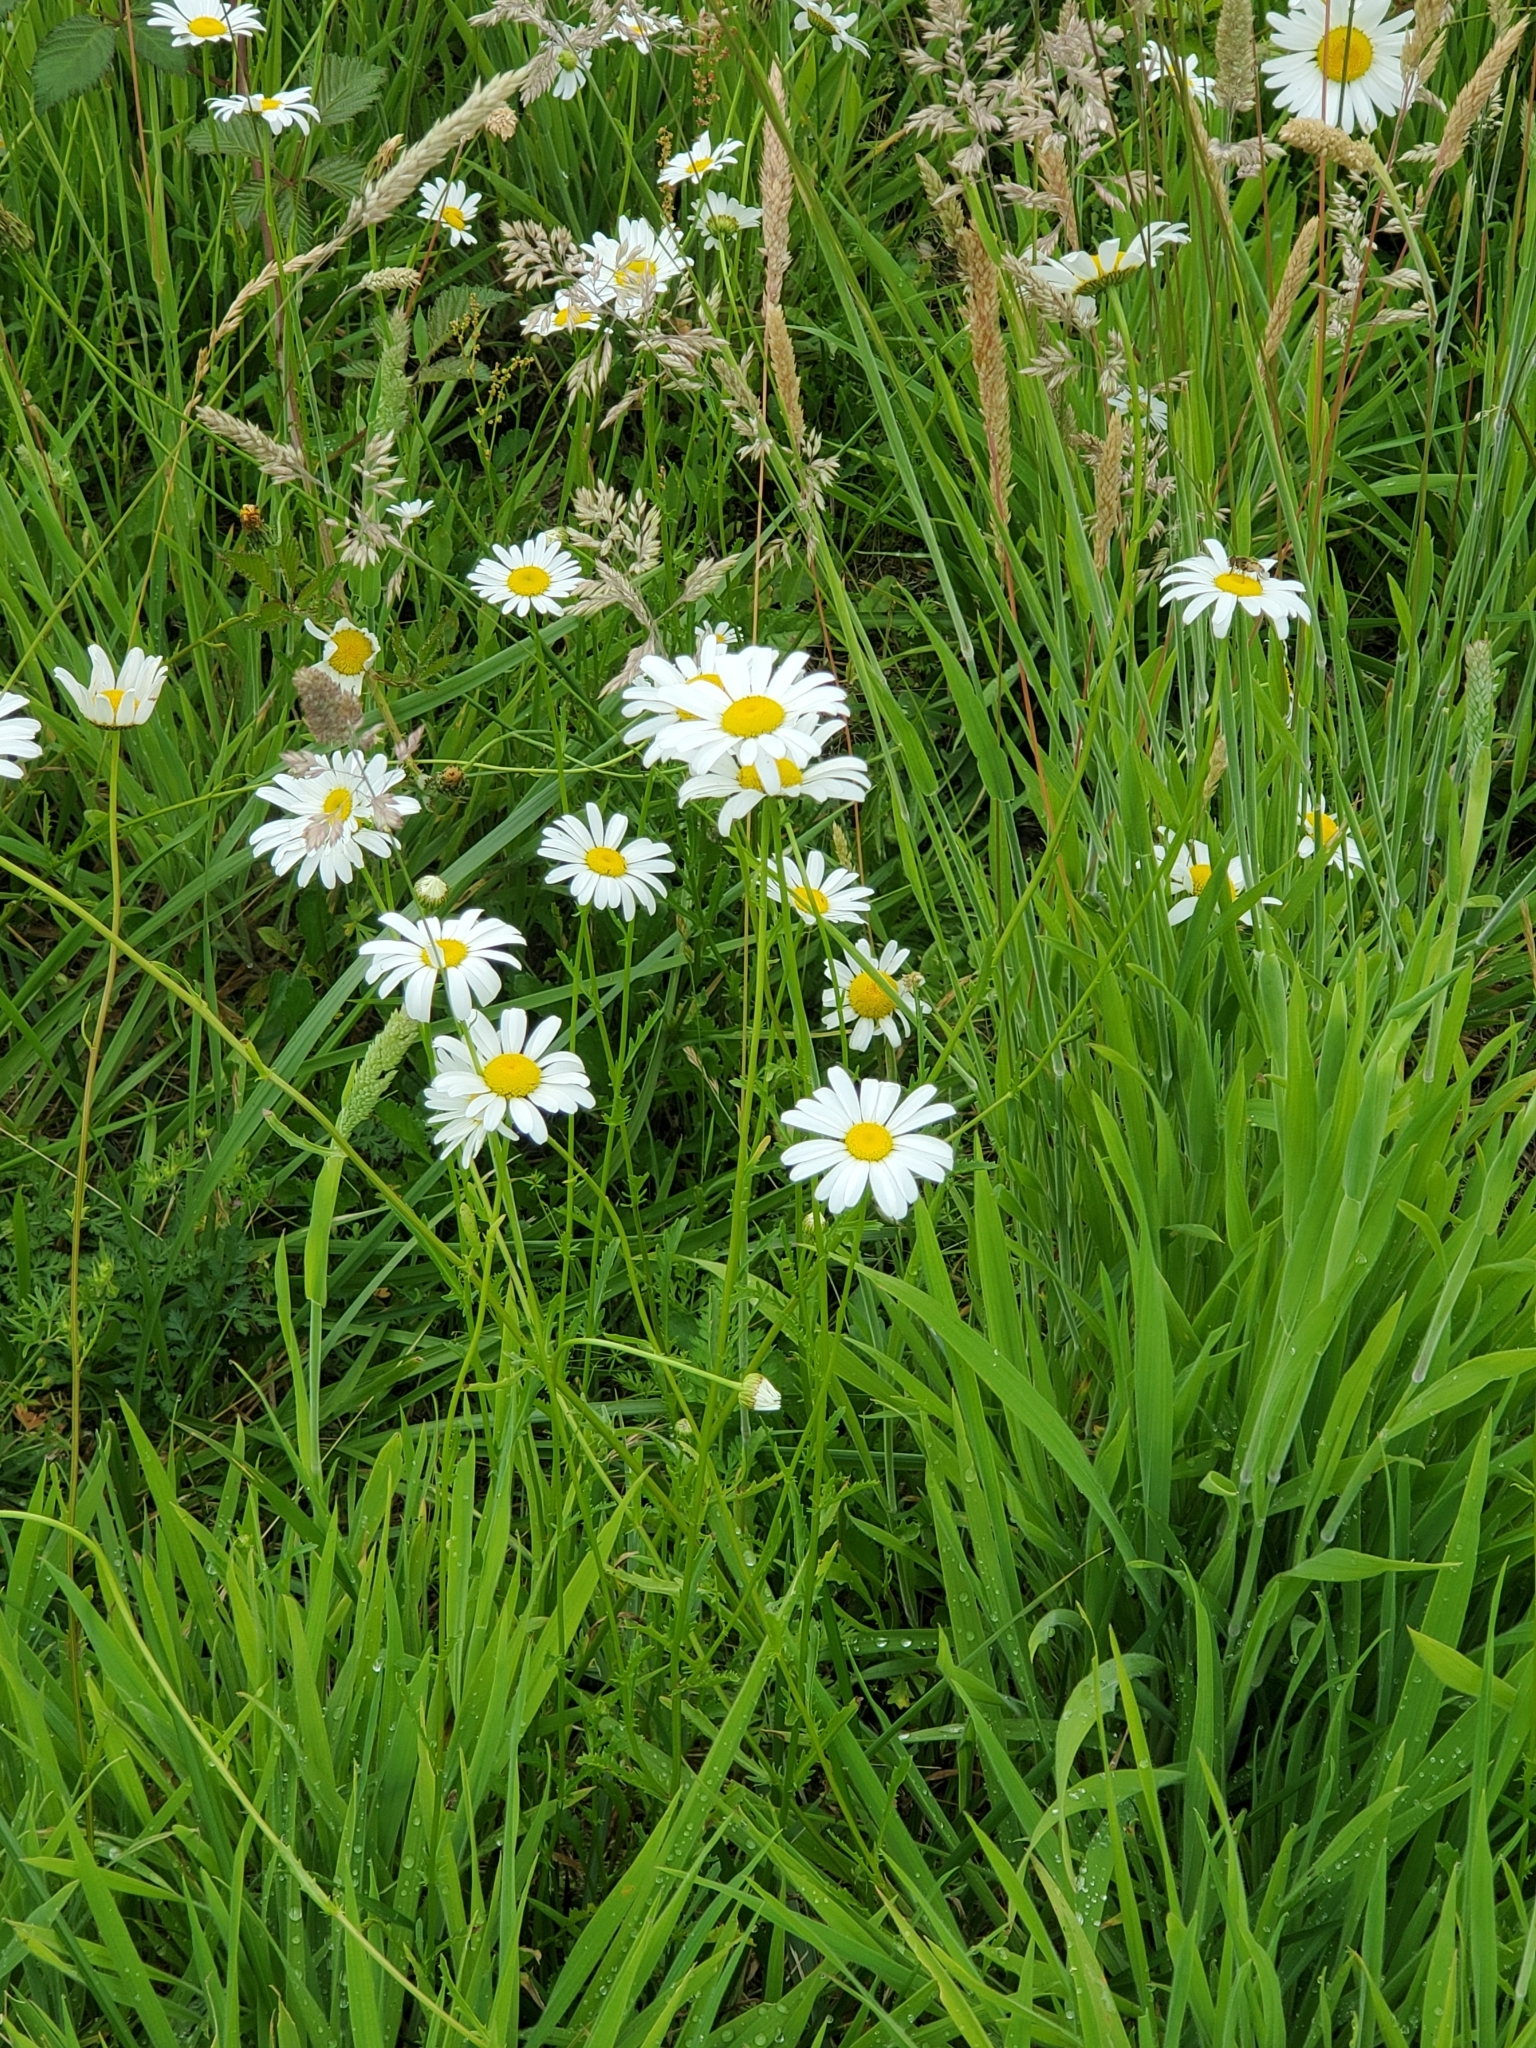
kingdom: Plantae
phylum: Tracheophyta
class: Magnoliopsida
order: Asterales
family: Asteraceae
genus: Leucanthemum
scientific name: Leucanthemum vulgare
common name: Oxeye daisy
